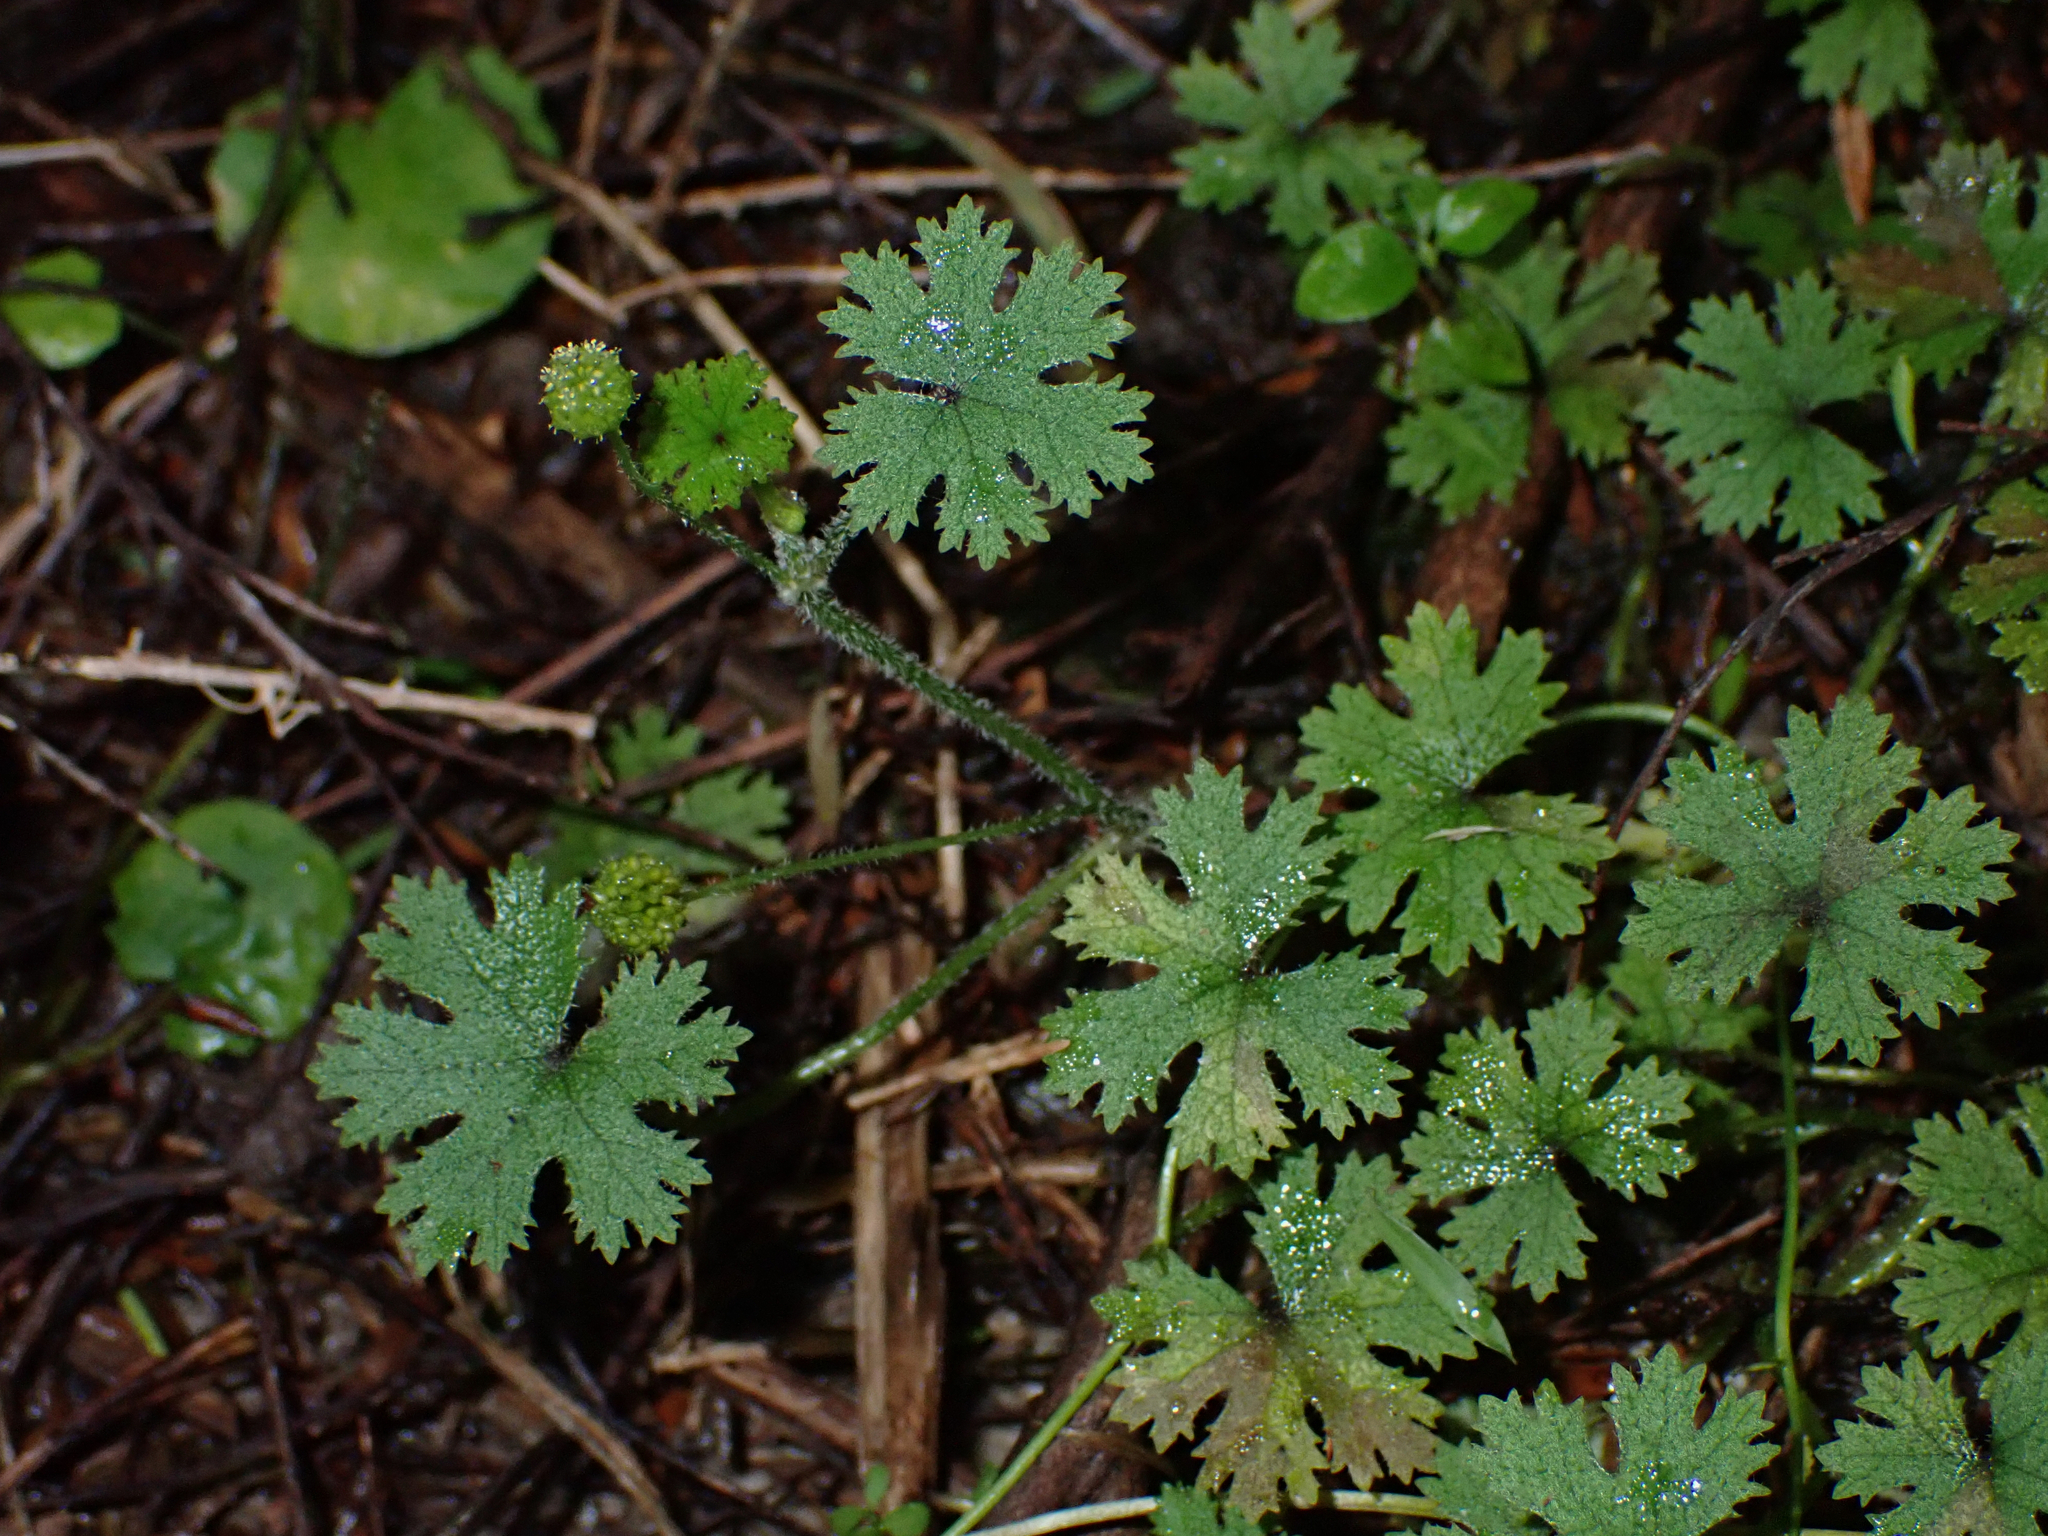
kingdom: Plantae
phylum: Tracheophyta
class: Magnoliopsida
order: Apiales
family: Araliaceae
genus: Hydrocotyle
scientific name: Hydrocotyle dissecta
